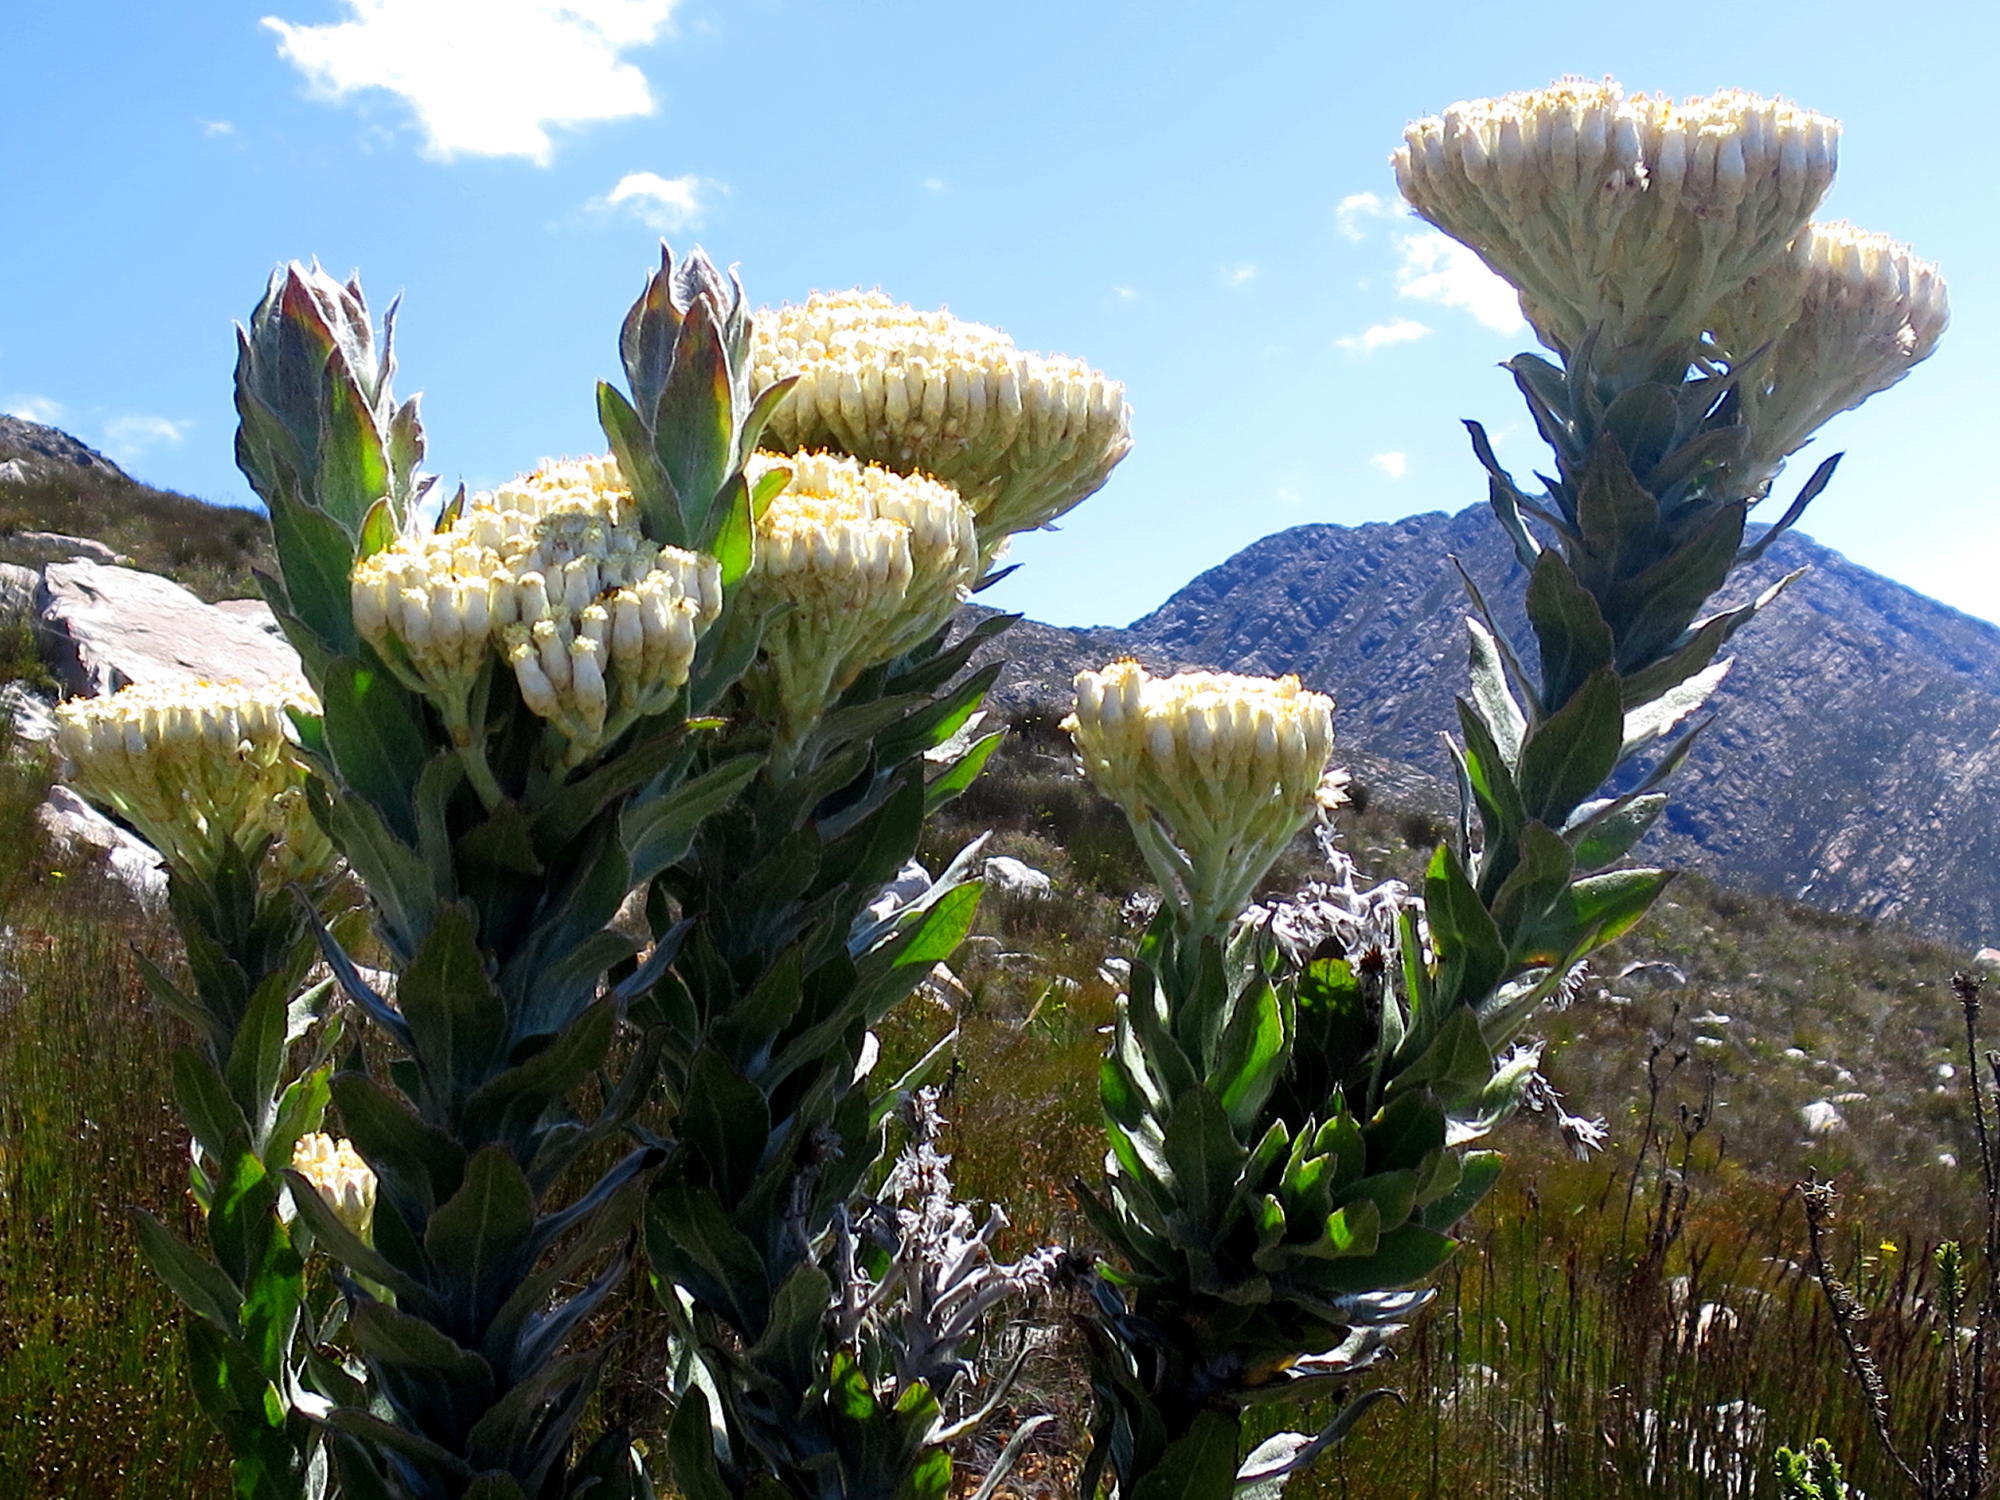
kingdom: Plantae
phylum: Tracheophyta
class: Magnoliopsida
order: Asterales
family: Asteraceae
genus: Syncarpha
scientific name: Syncarpha milleflora
